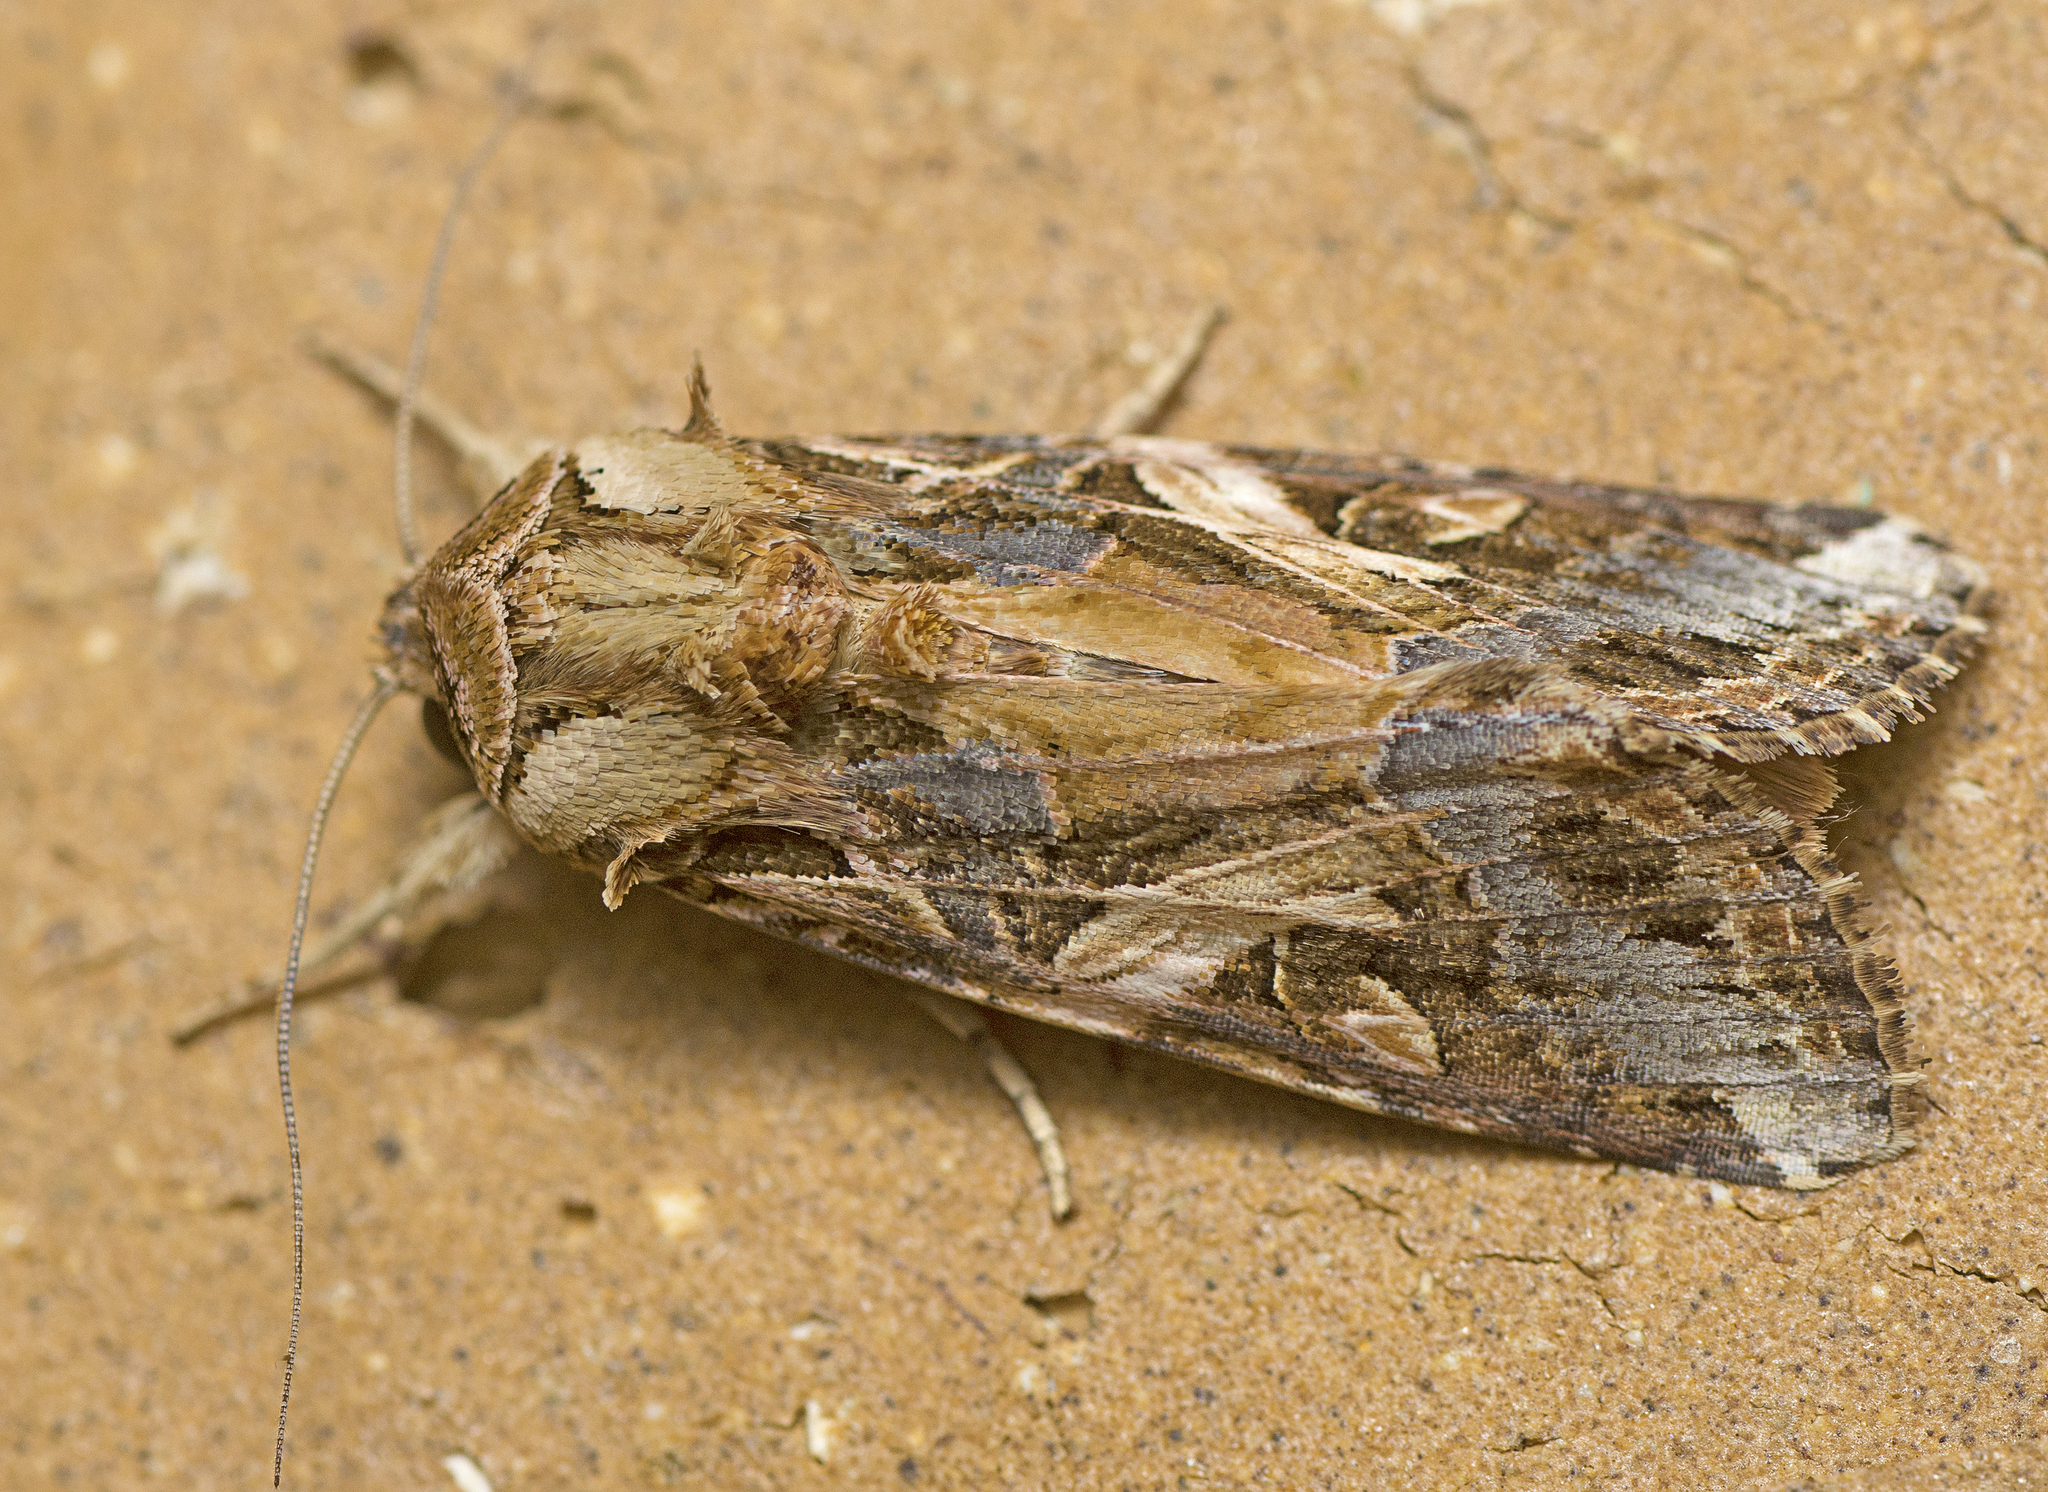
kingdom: Animalia
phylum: Arthropoda
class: Insecta
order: Lepidoptera
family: Noctuidae
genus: Spodoptera
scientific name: Spodoptera litura
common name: Asian cotton leafworm
